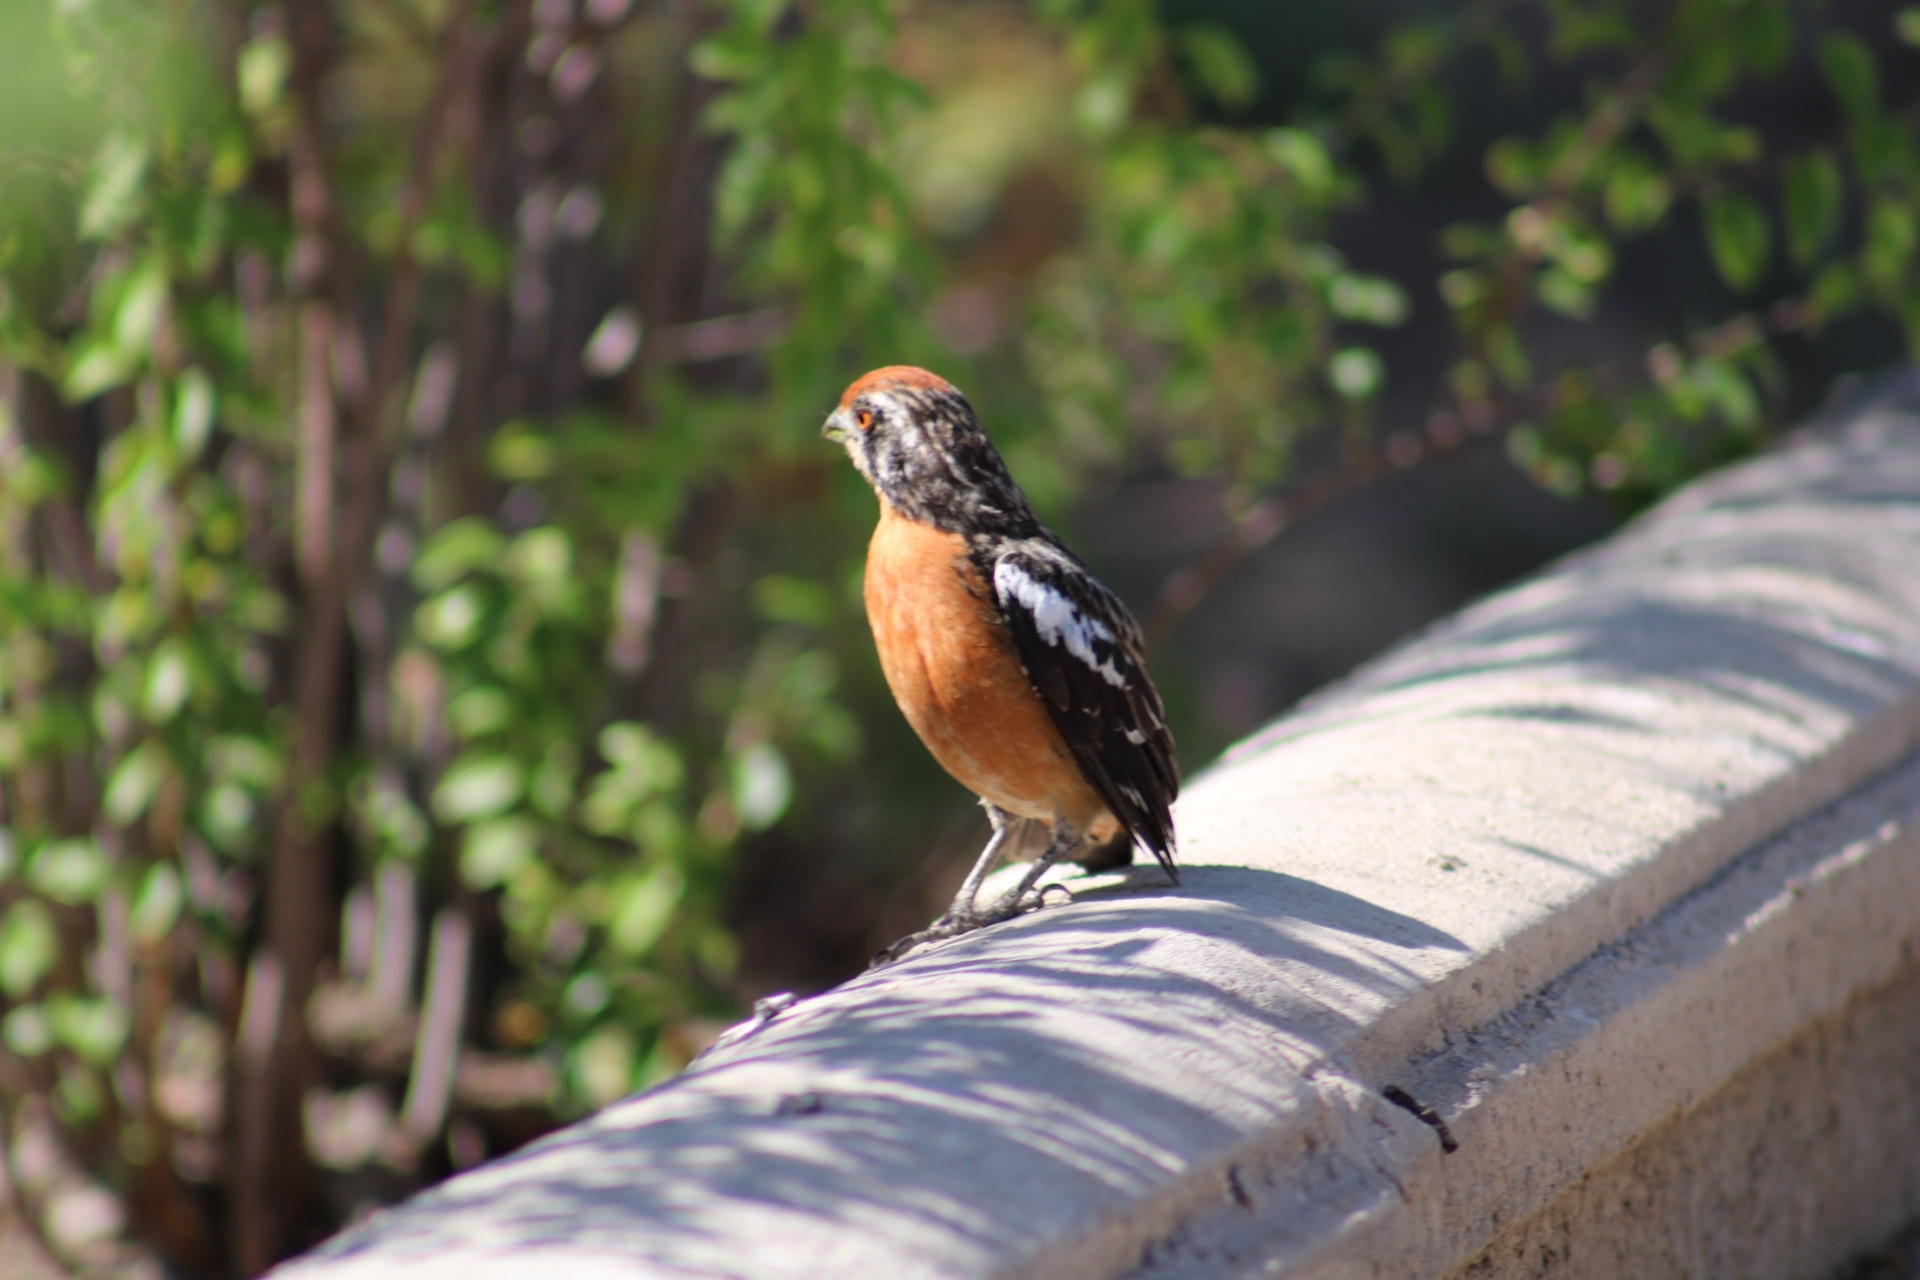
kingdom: Animalia
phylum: Chordata
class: Aves
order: Passeriformes
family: Cotingidae
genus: Phytotoma
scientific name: Phytotoma rara
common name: Rufous-tailed plantcutter
